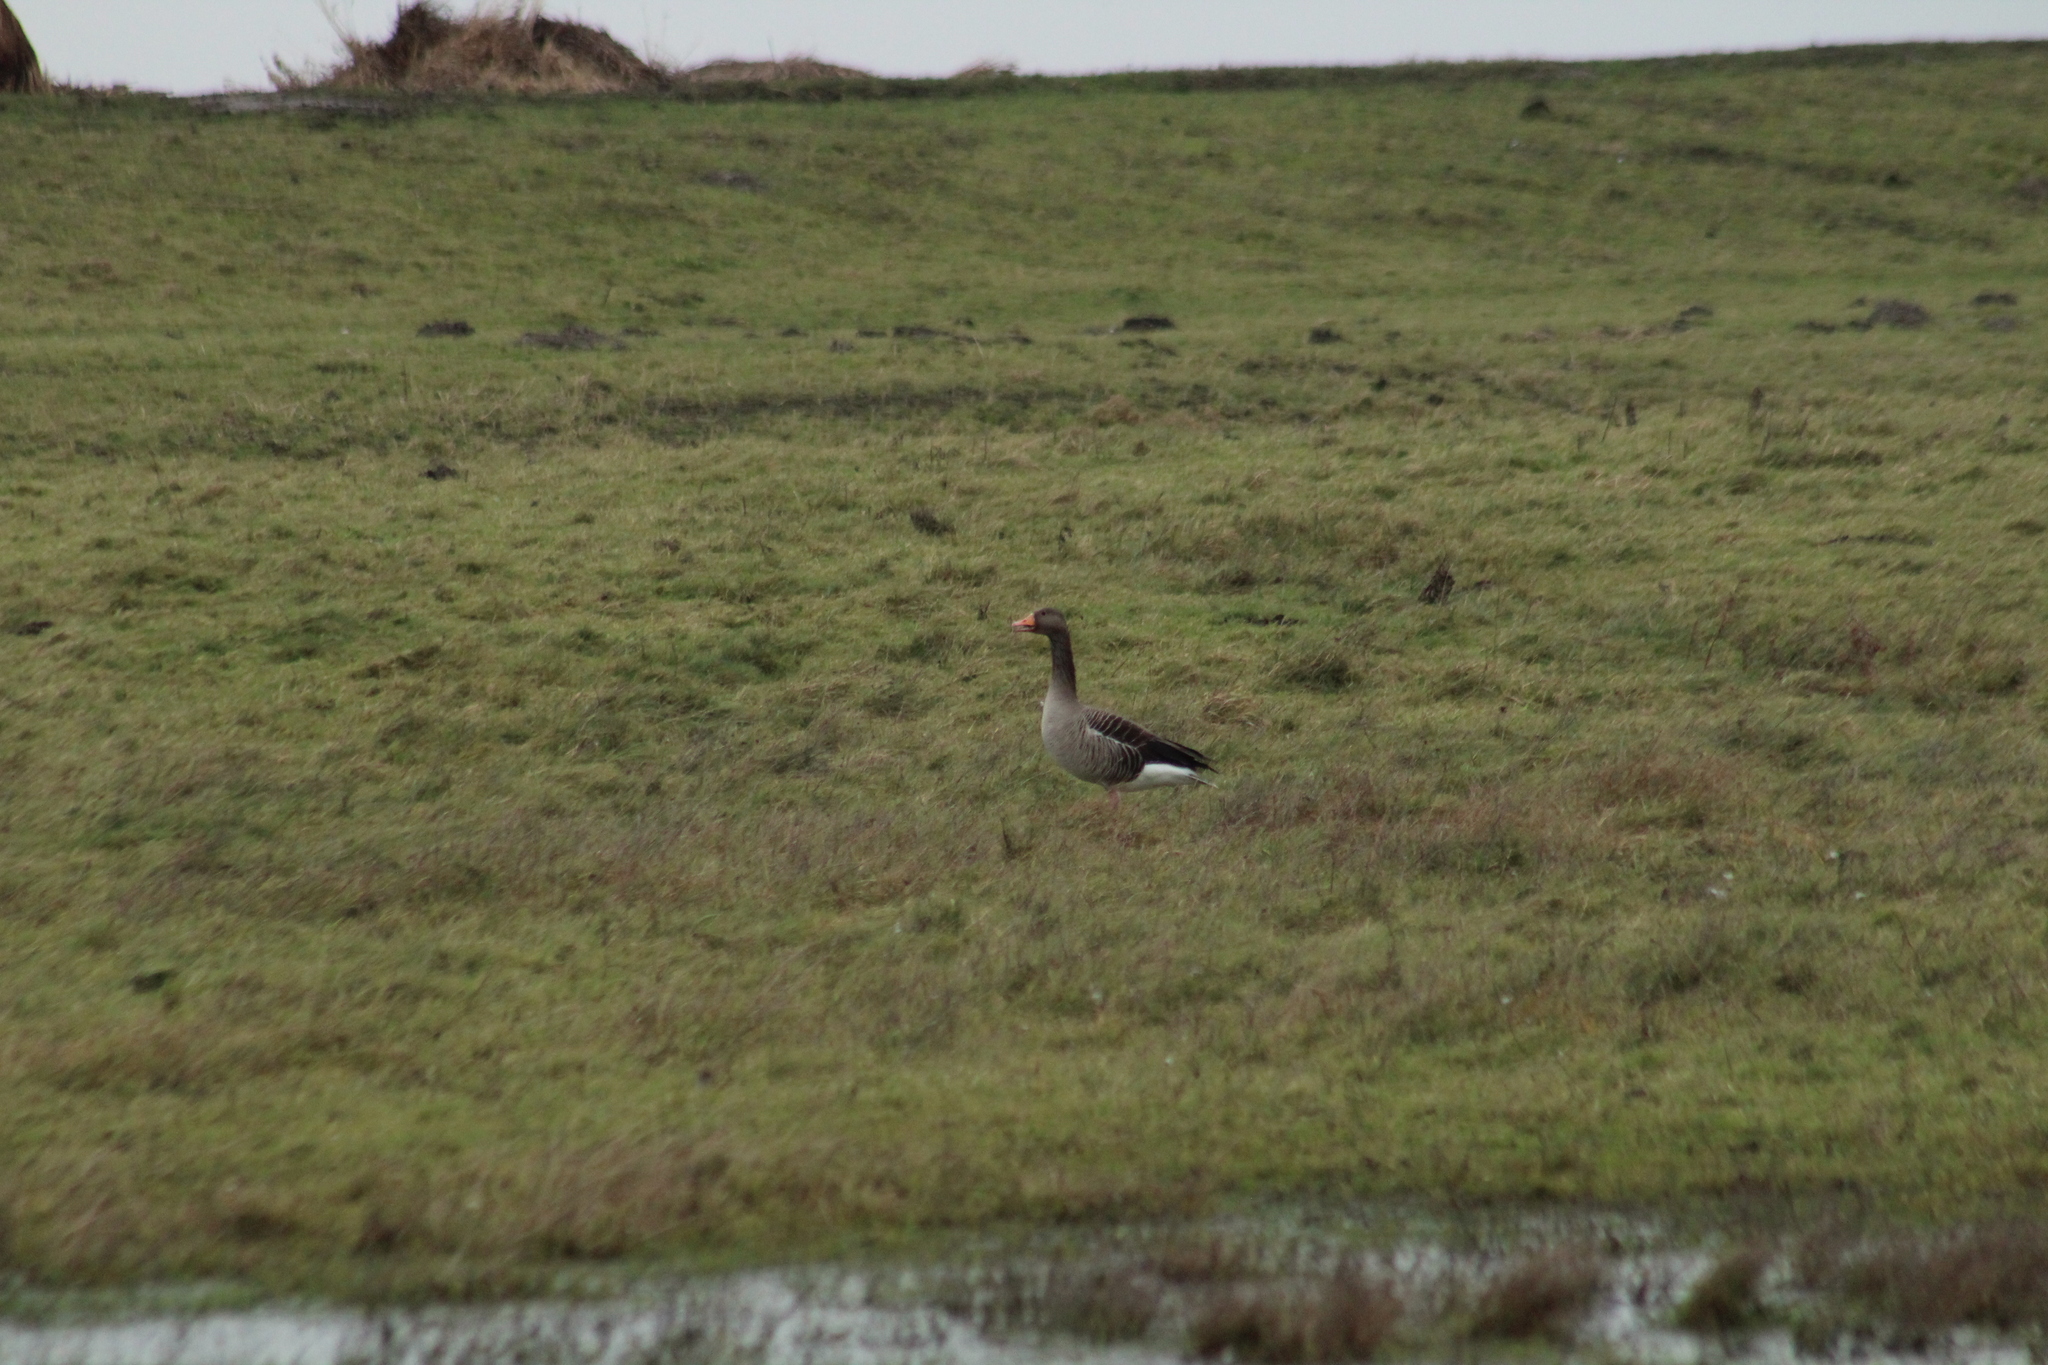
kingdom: Animalia
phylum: Chordata
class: Aves
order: Anseriformes
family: Anatidae
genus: Anser
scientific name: Anser anser
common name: Greylag goose
